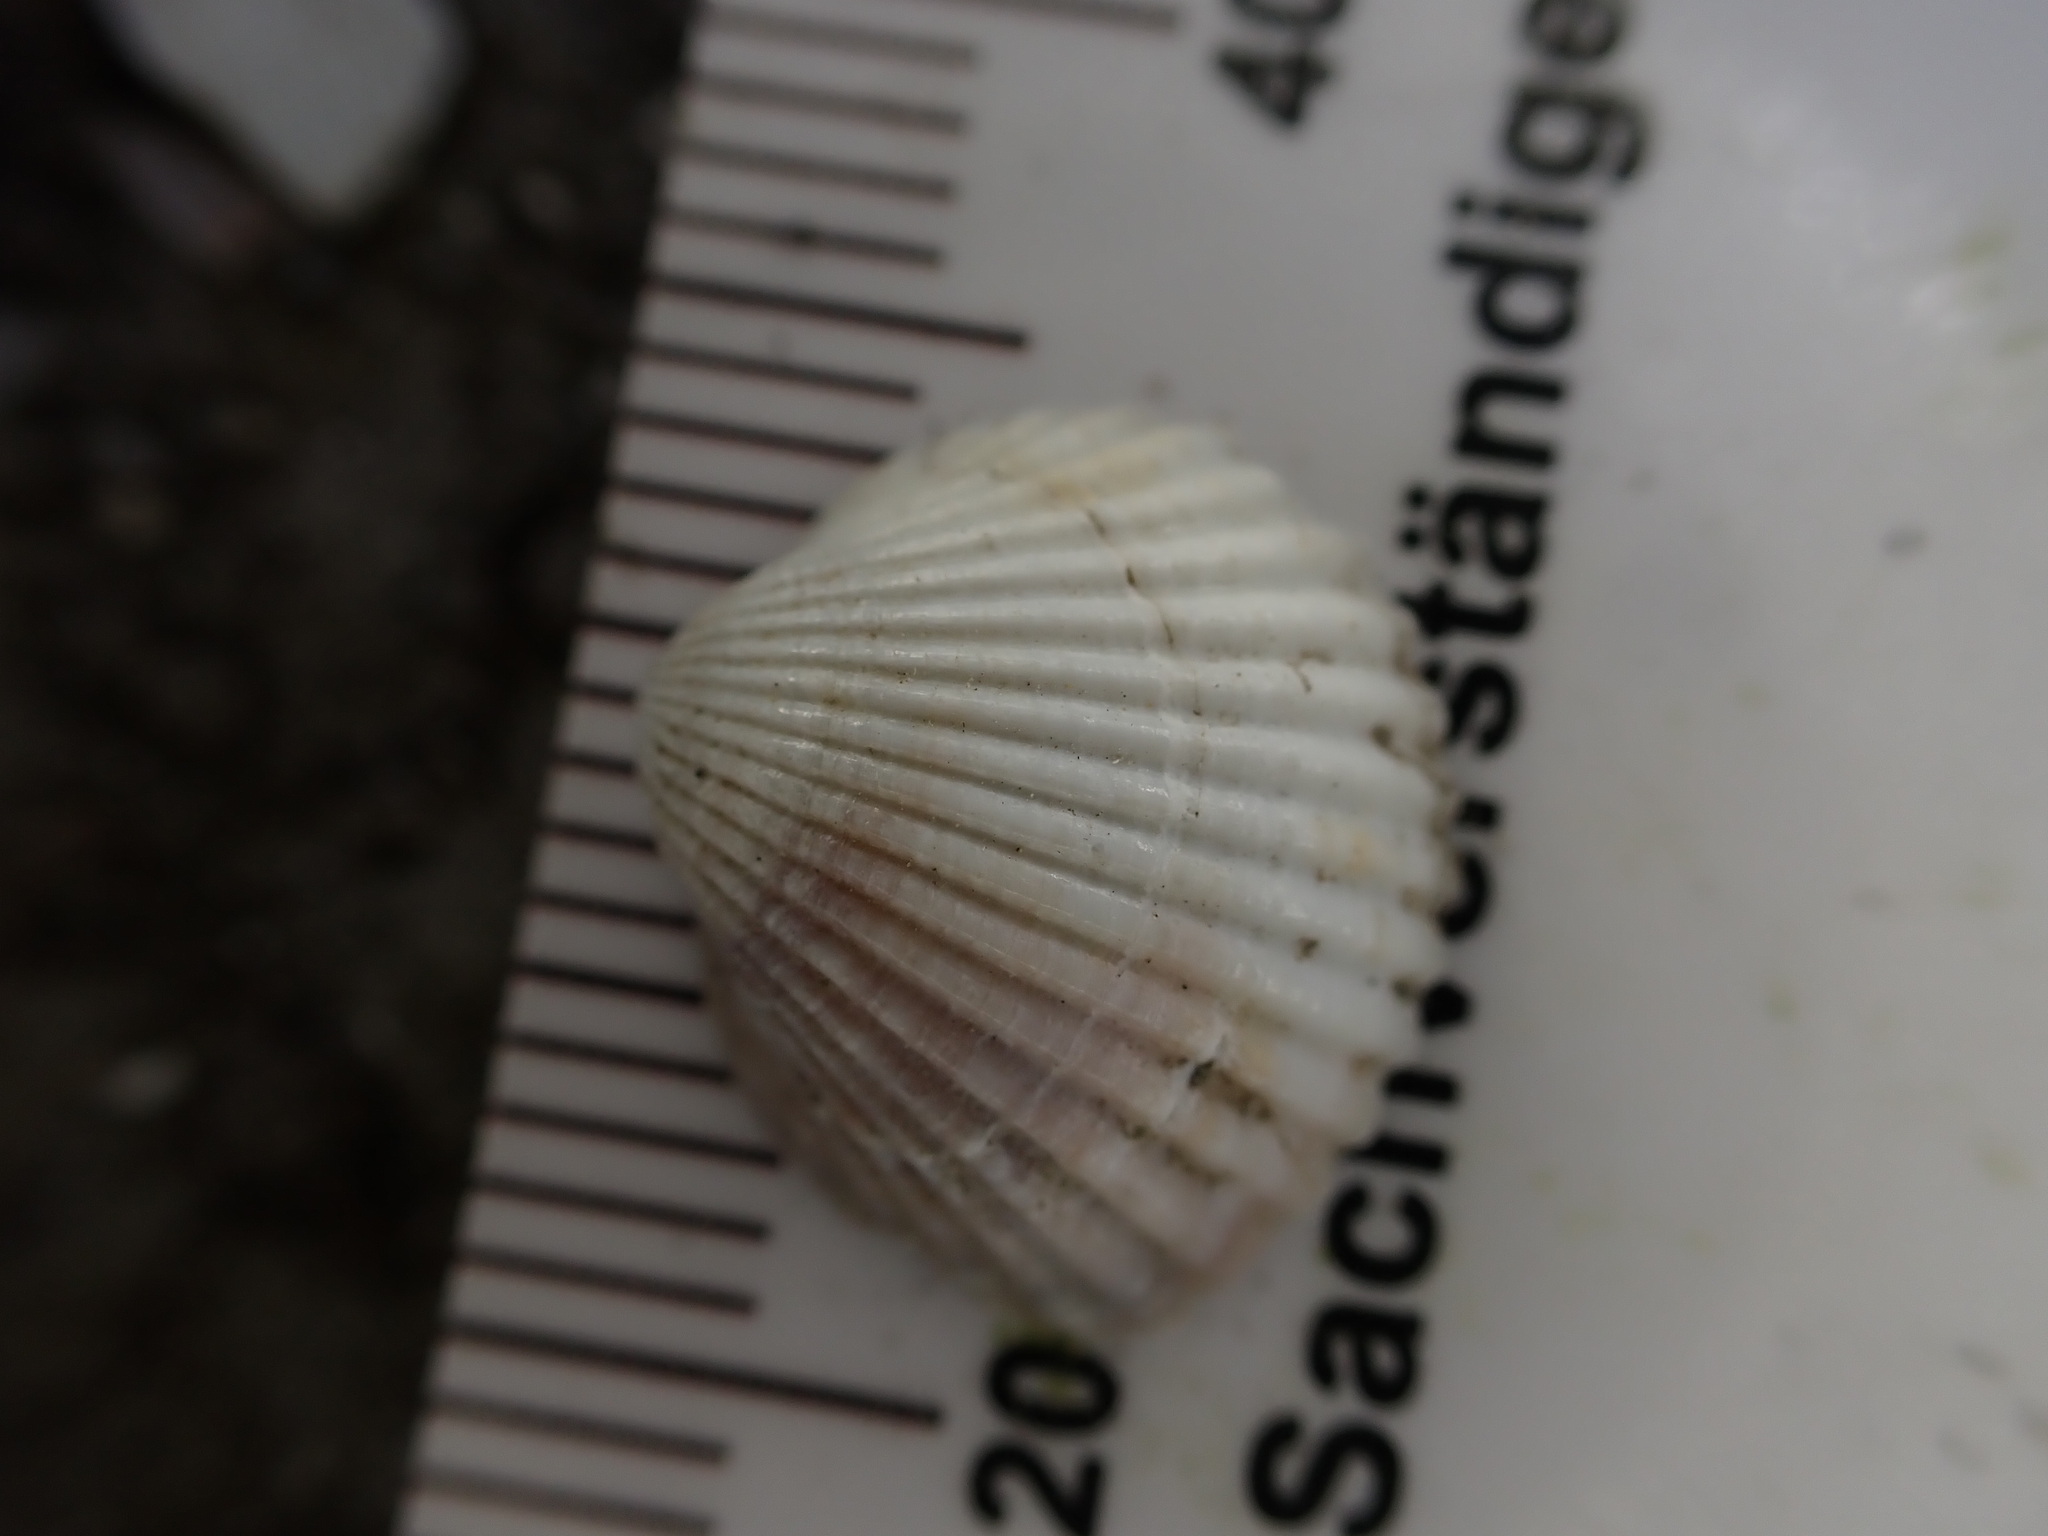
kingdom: Animalia
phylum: Mollusca
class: Bivalvia
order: Cardiida
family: Cardiidae
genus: Cerastoderma
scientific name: Cerastoderma glaucum
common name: Lagoon cockle
